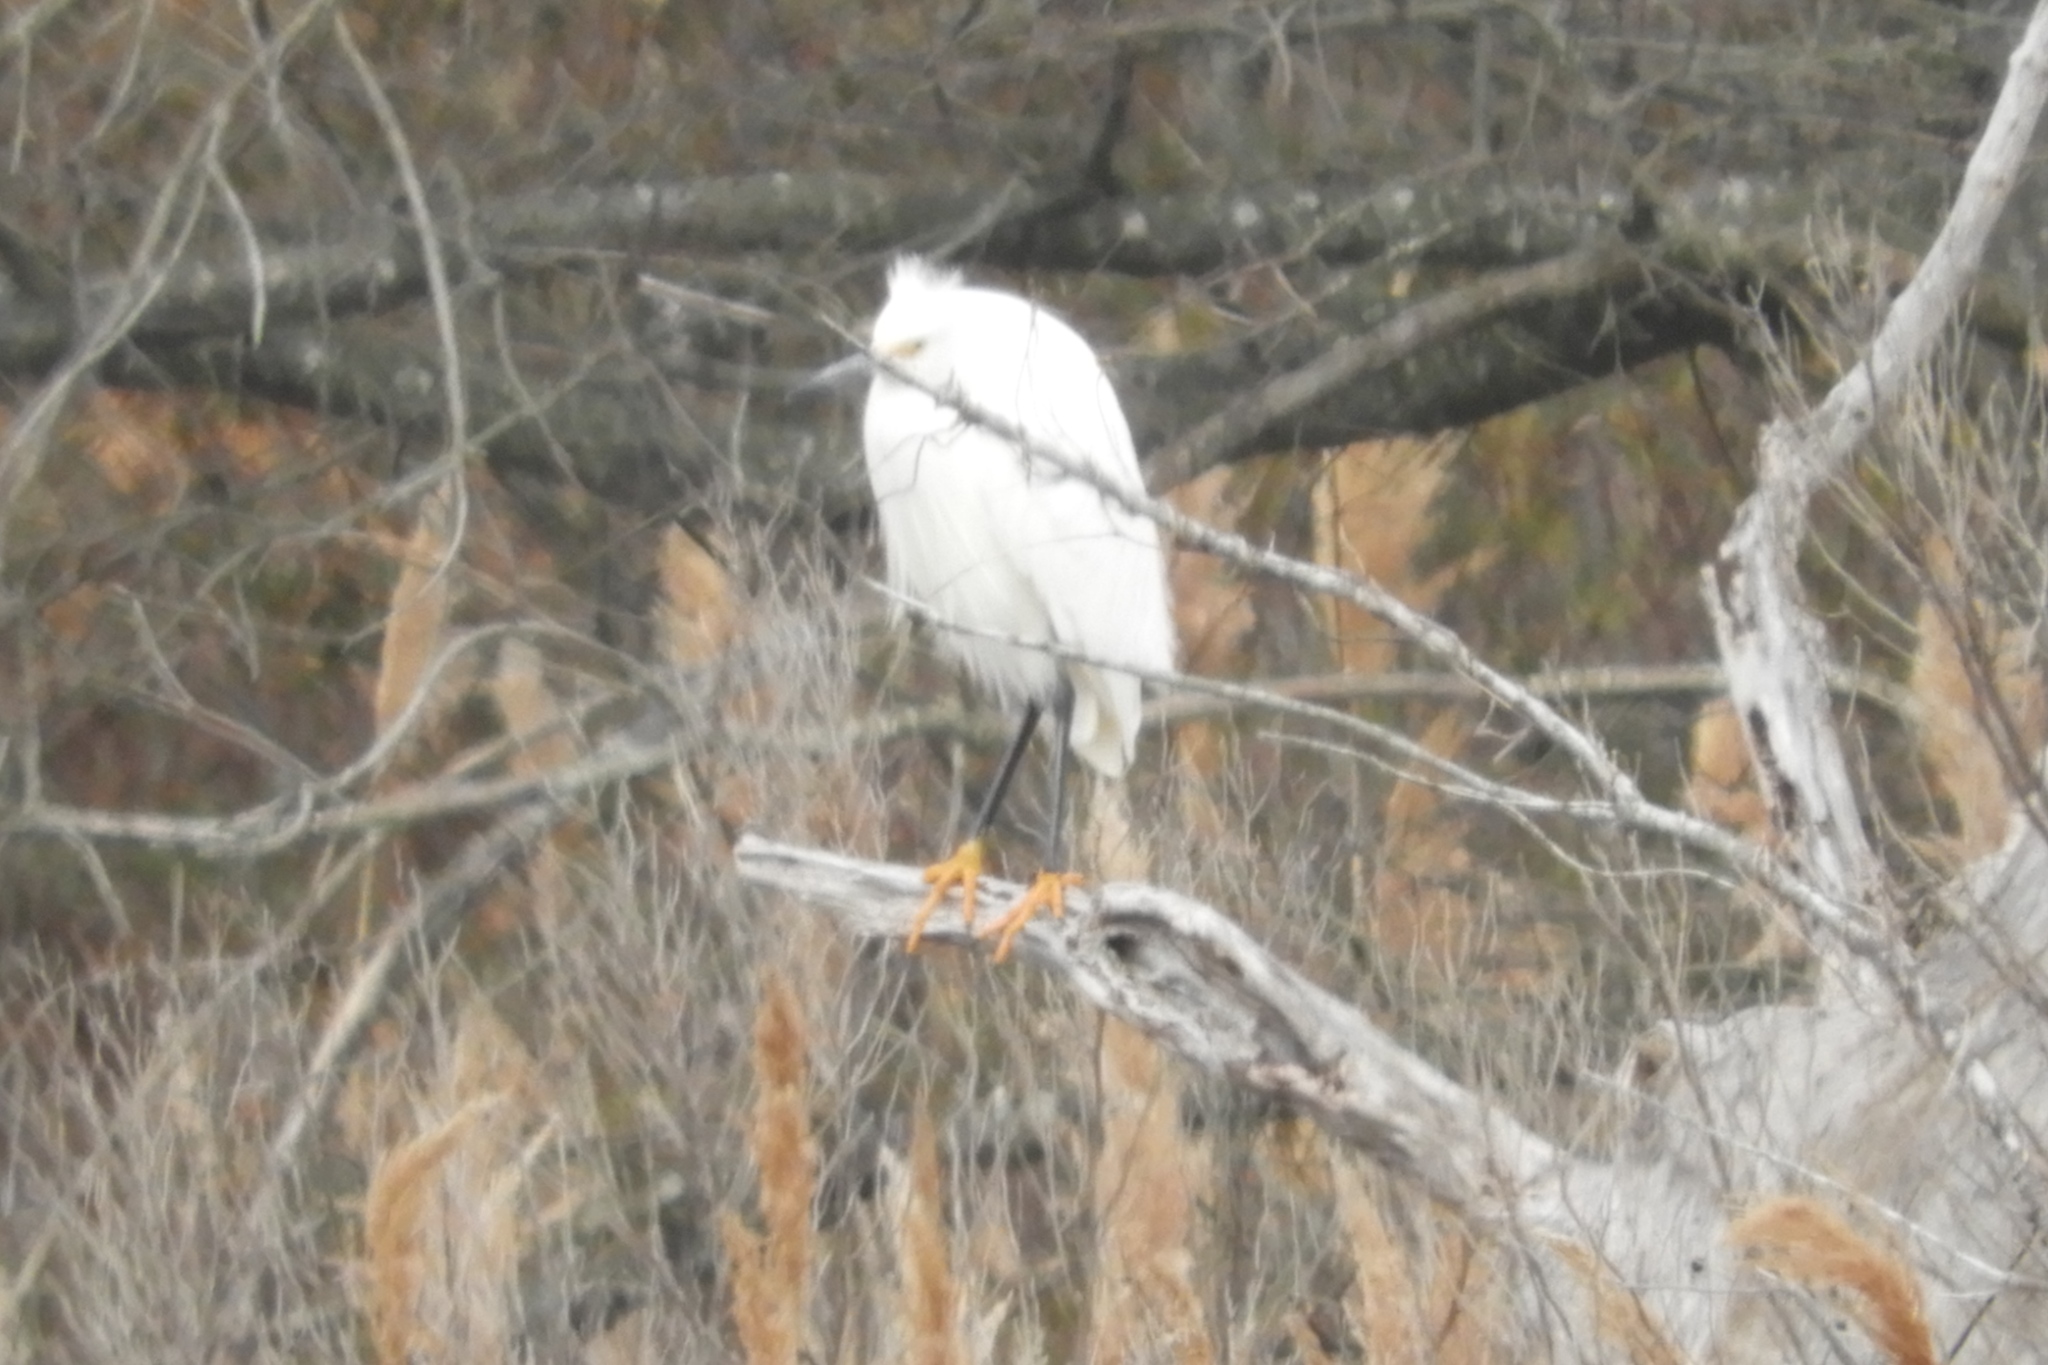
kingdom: Animalia
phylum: Chordata
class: Aves
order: Pelecaniformes
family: Ardeidae
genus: Egretta
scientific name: Egretta thula
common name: Snowy egret
